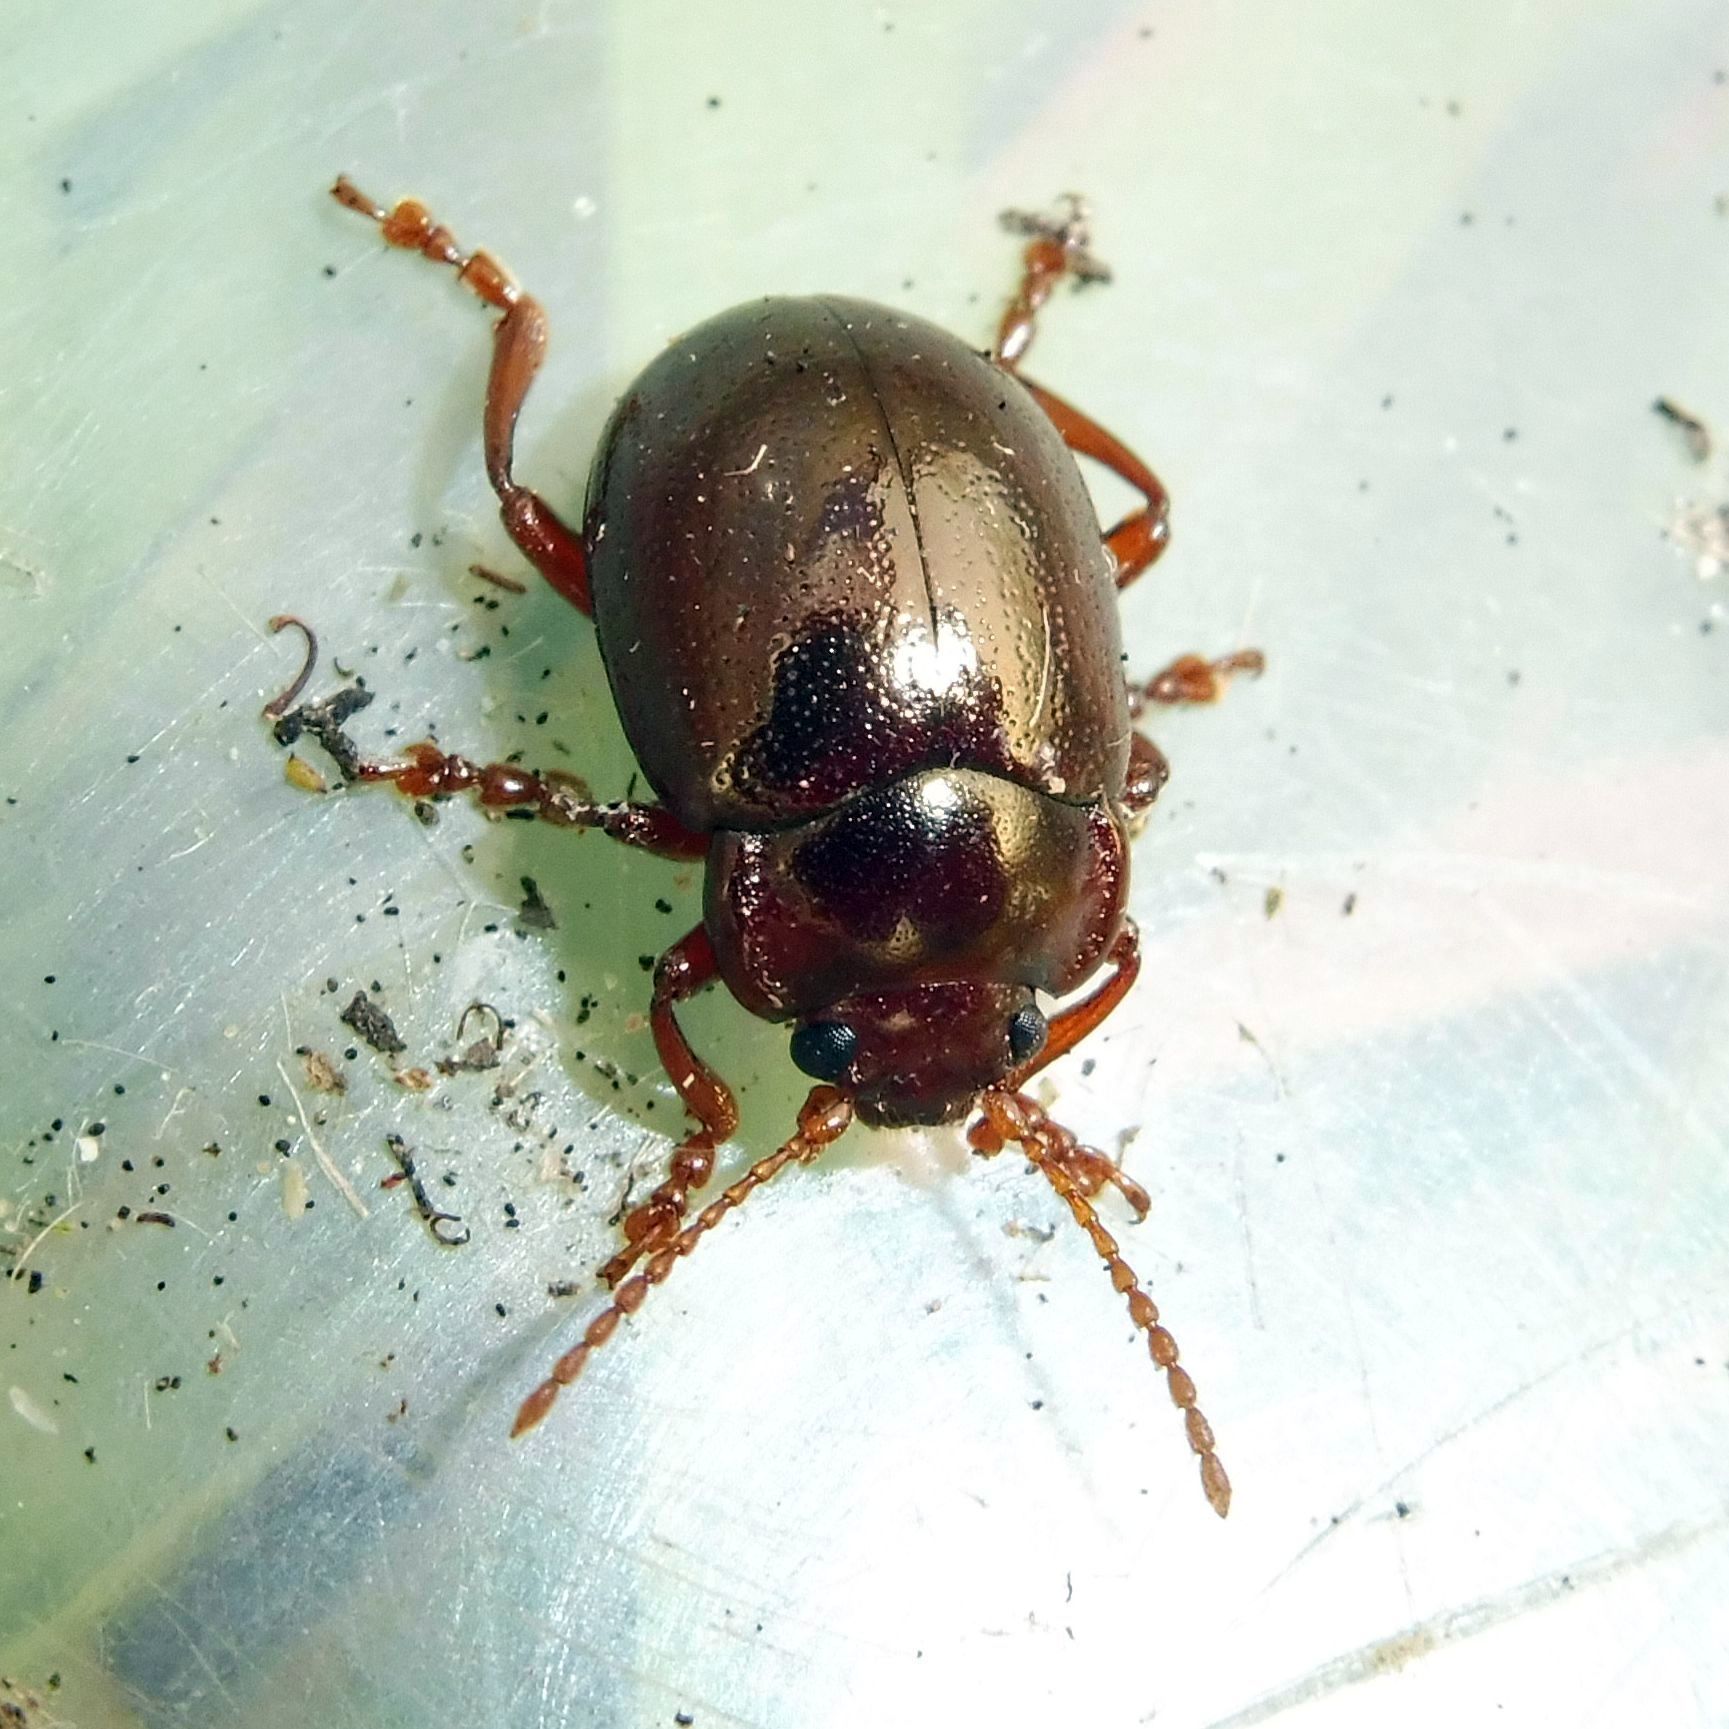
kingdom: Animalia
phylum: Arthropoda
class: Insecta
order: Coleoptera
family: Chrysomelidae
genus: Chrysolina
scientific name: Chrysolina staphylaea
